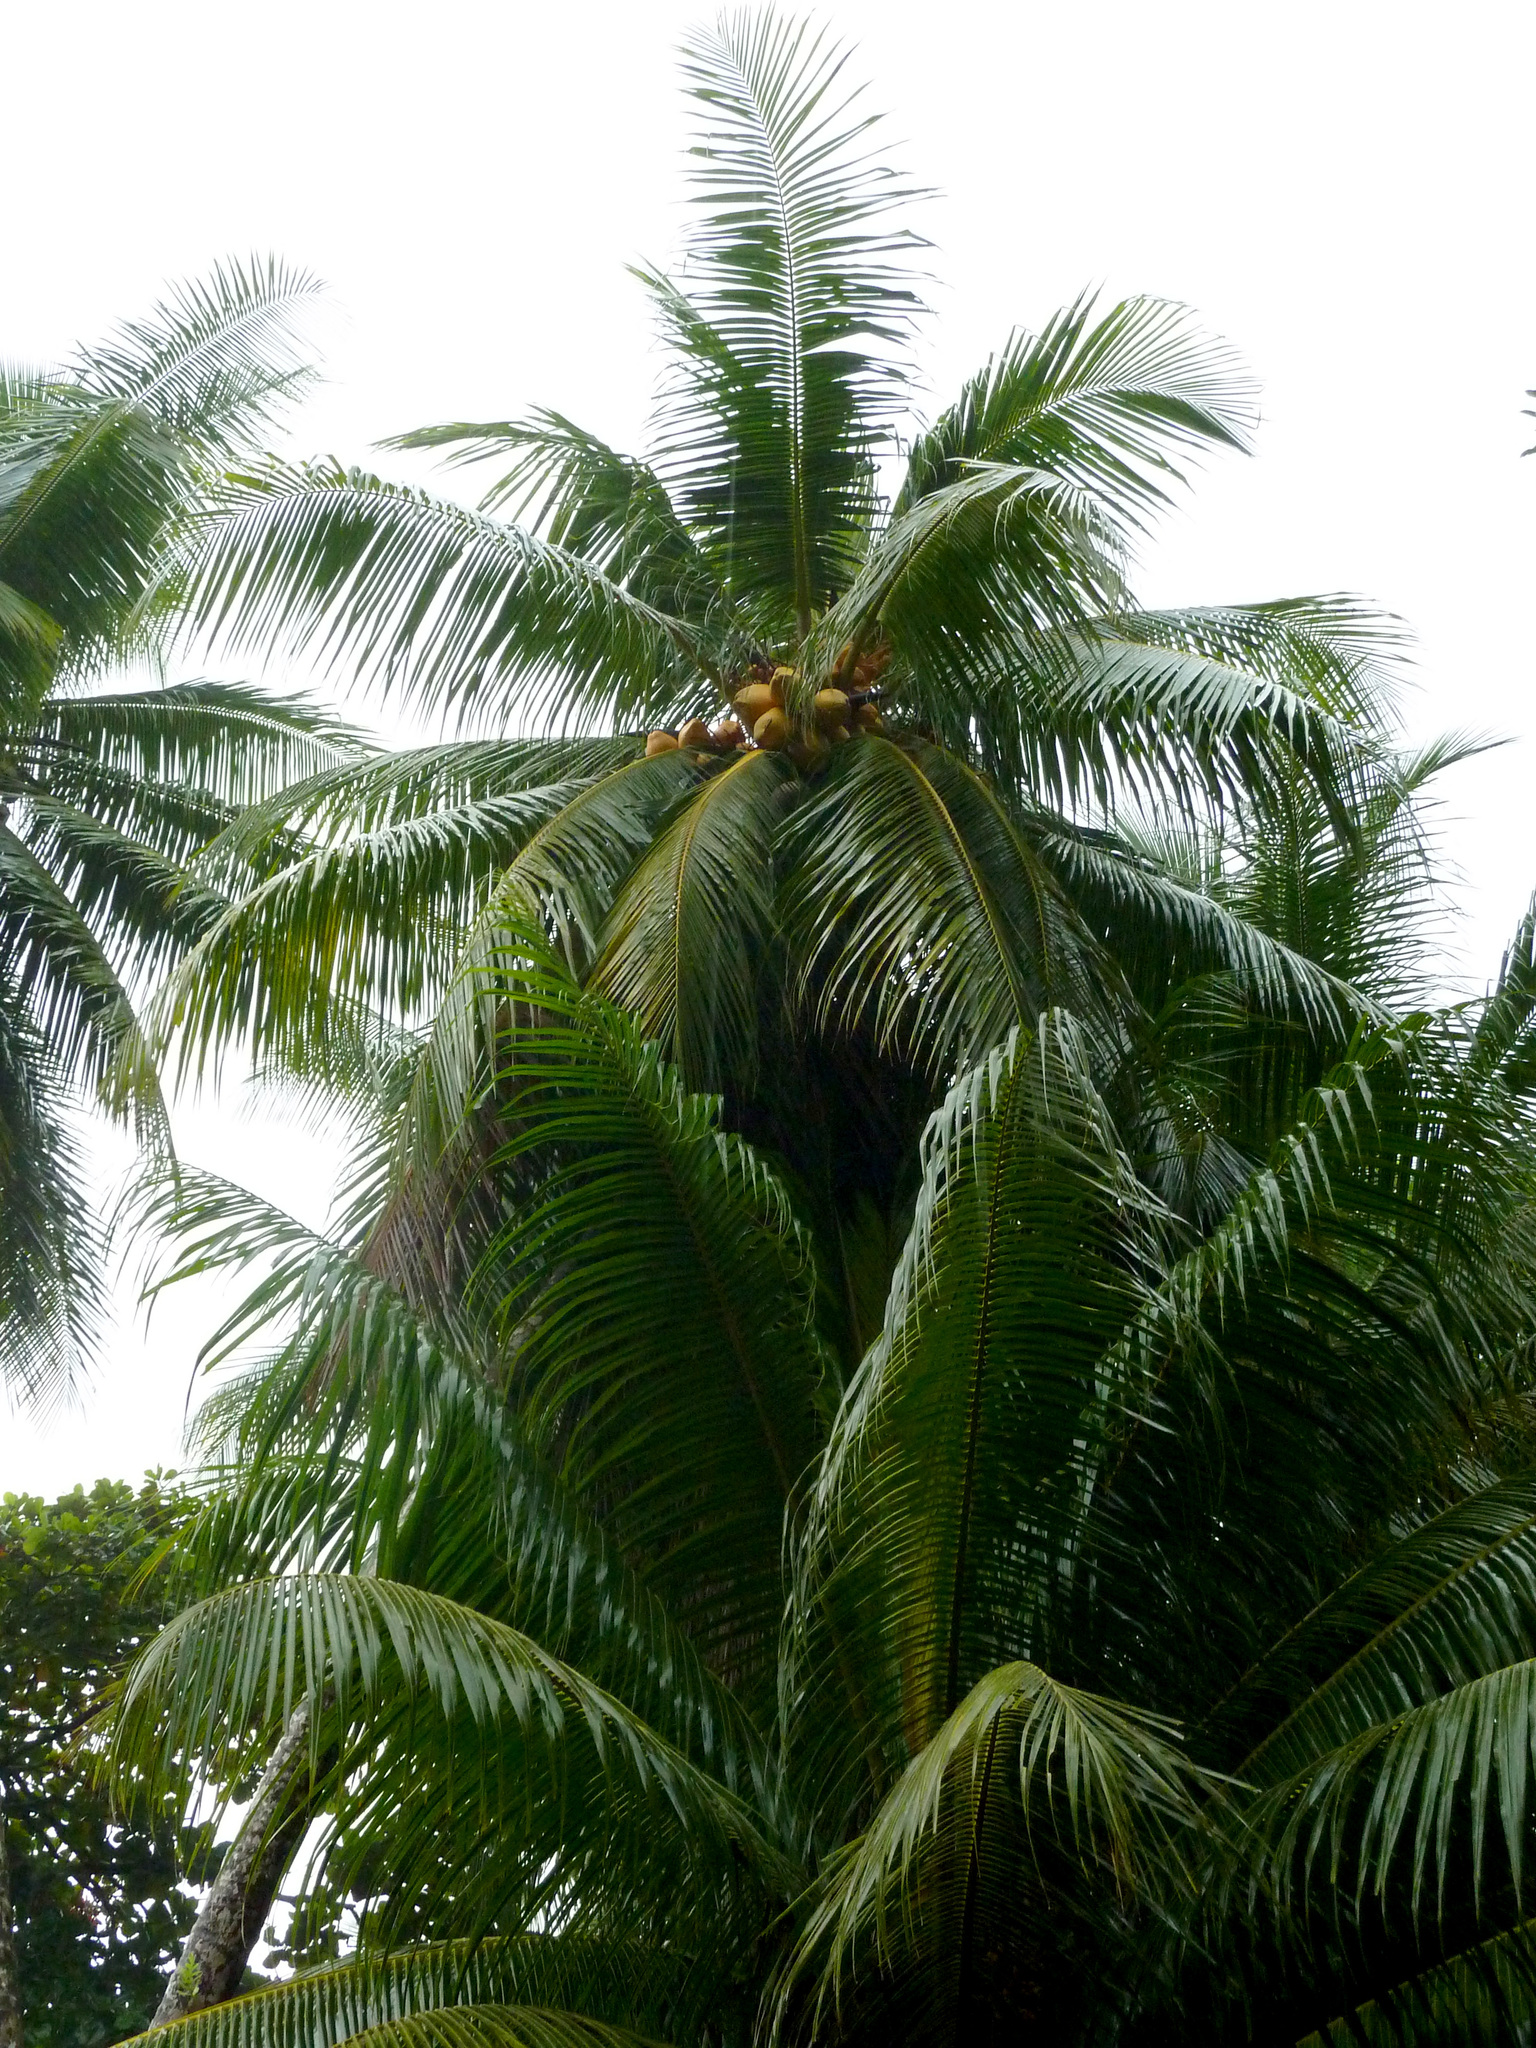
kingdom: Plantae
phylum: Tracheophyta
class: Liliopsida
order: Arecales
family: Arecaceae
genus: Cocos
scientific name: Cocos nucifera
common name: Coconut palm
